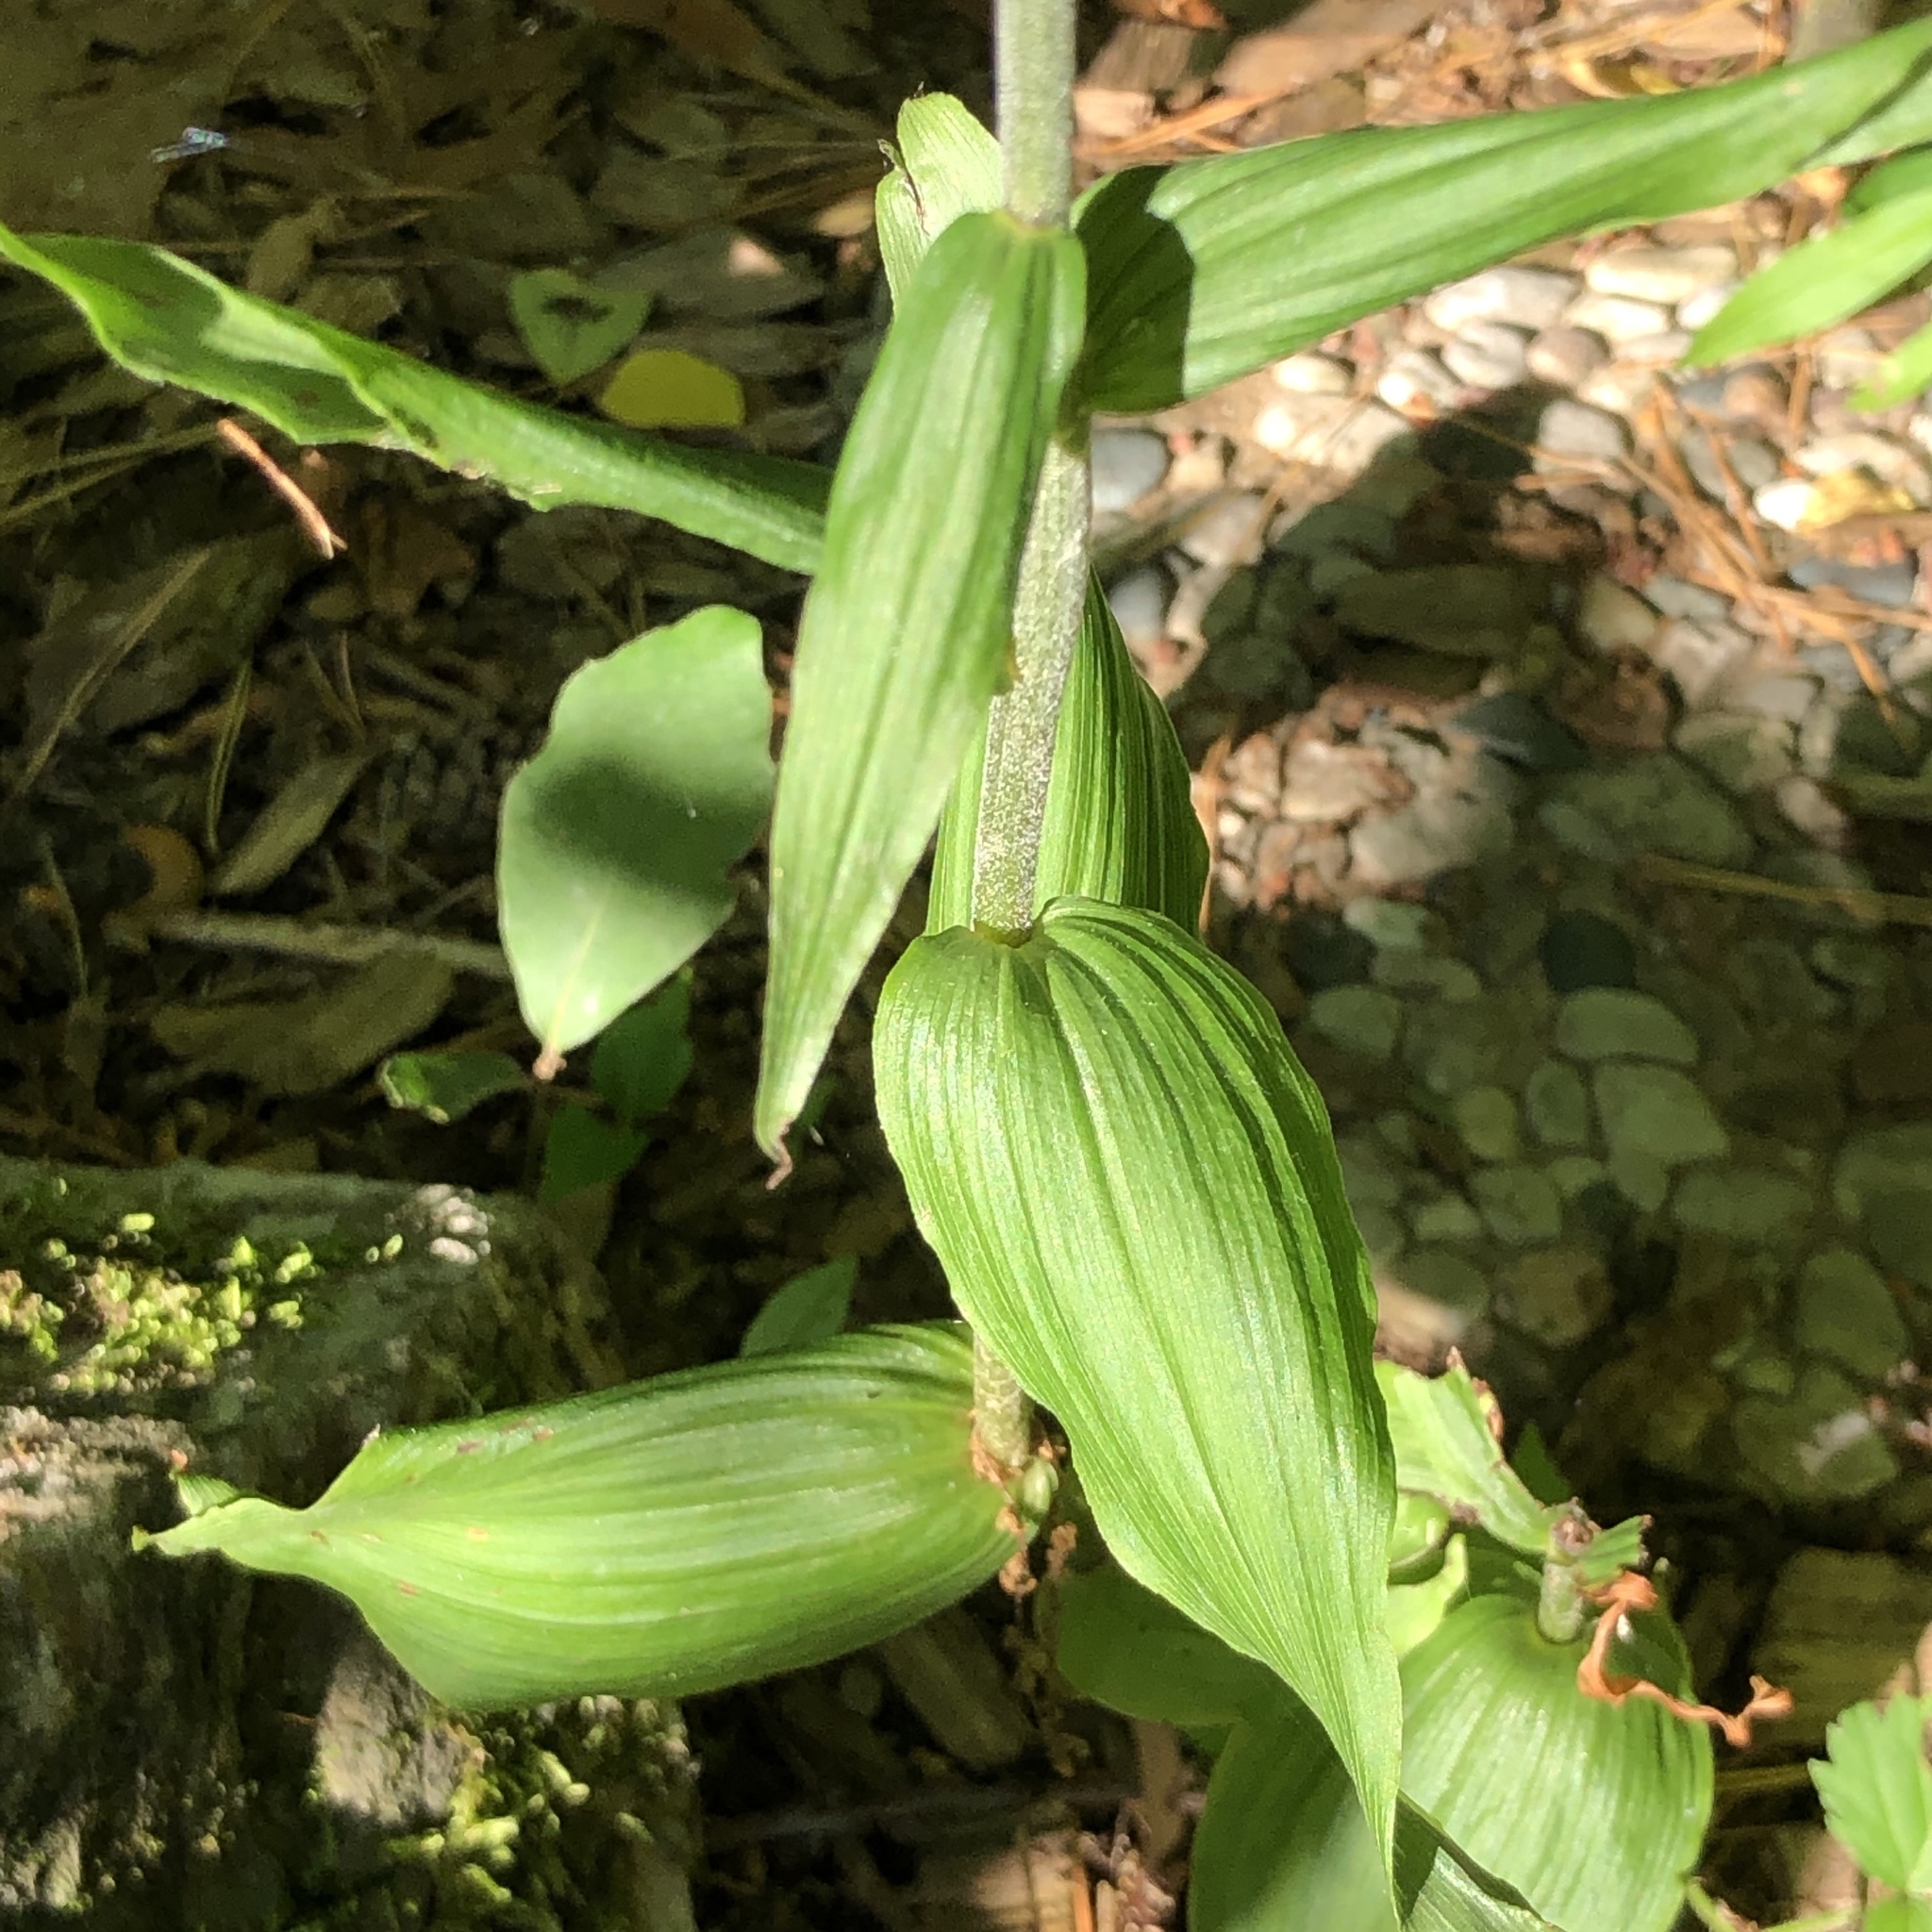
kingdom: Plantae
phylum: Tracheophyta
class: Liliopsida
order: Asparagales
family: Orchidaceae
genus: Epipactis
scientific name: Epipactis helleborine
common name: Broad-leaved helleborine
